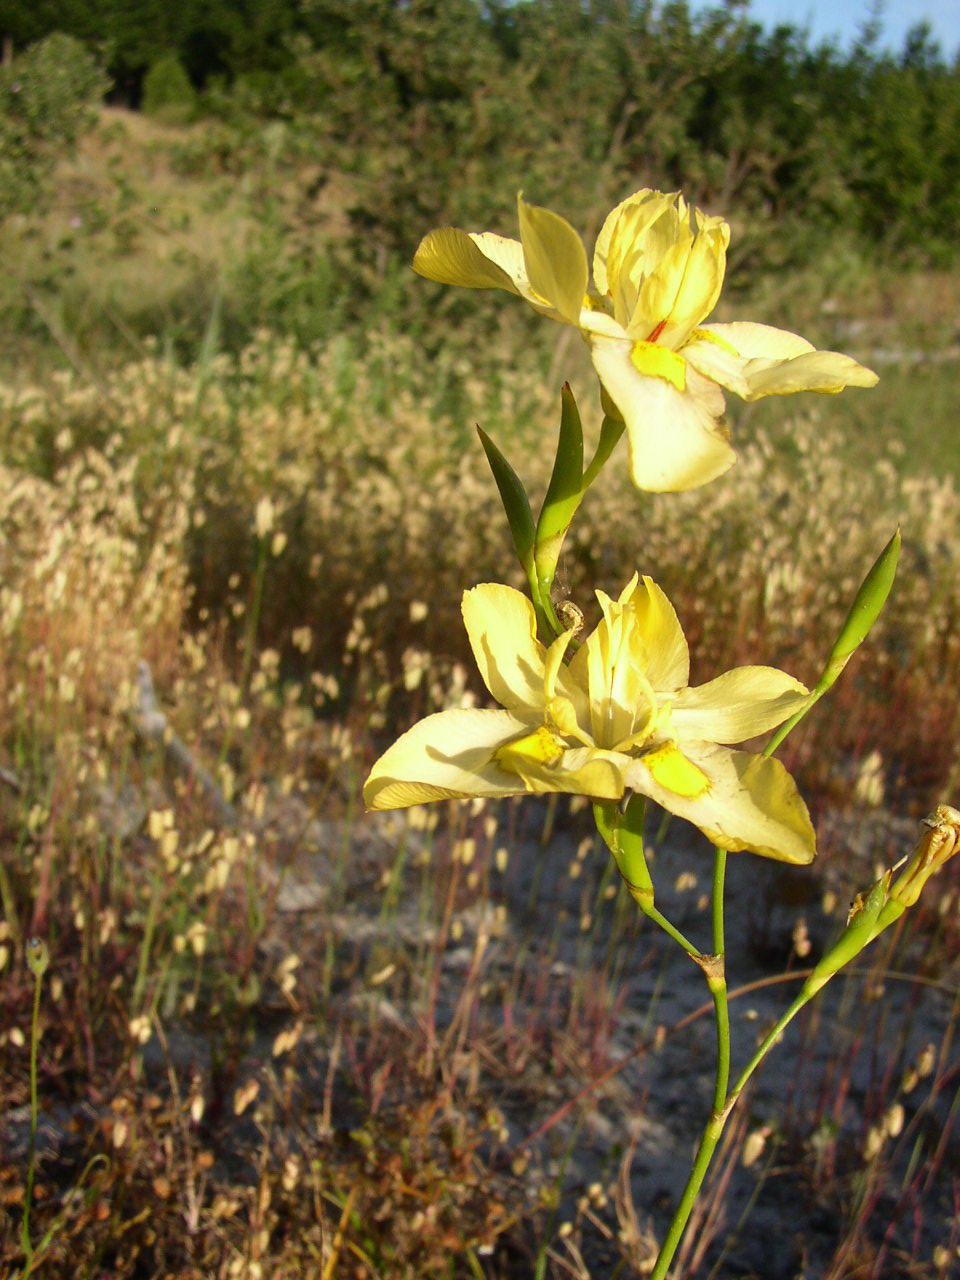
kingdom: Plantae
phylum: Tracheophyta
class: Liliopsida
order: Asparagales
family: Iridaceae
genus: Moraea
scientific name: Moraea ramosissima
